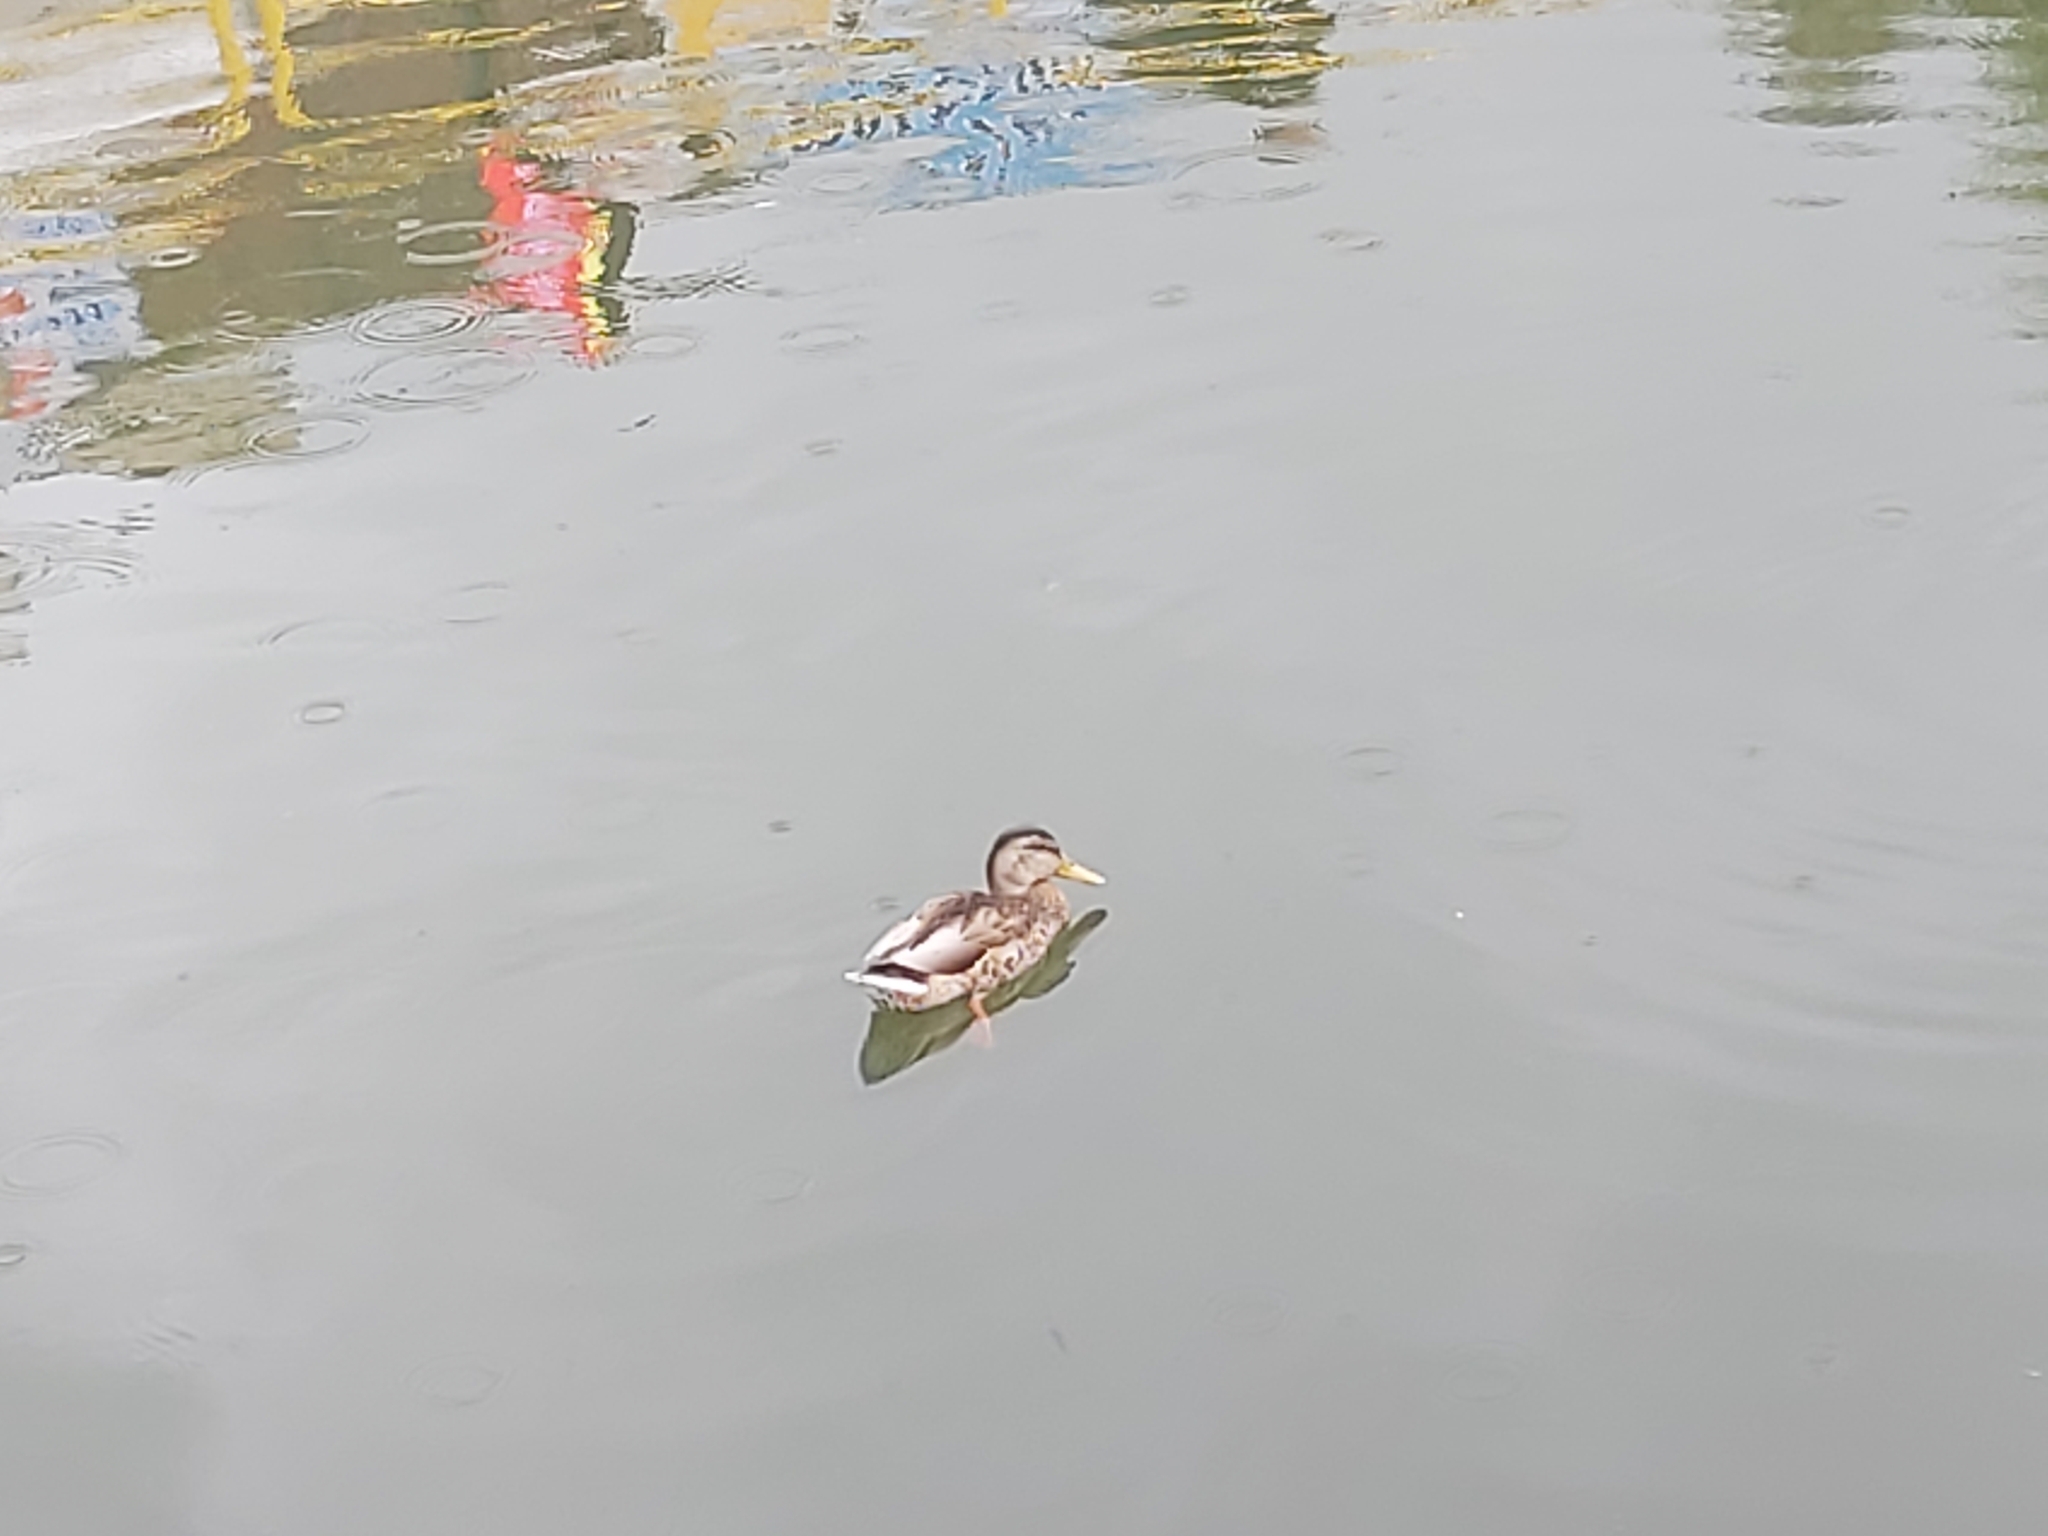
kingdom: Animalia
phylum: Chordata
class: Aves
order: Anseriformes
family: Anatidae
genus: Anas
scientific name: Anas platyrhynchos
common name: Mallard
